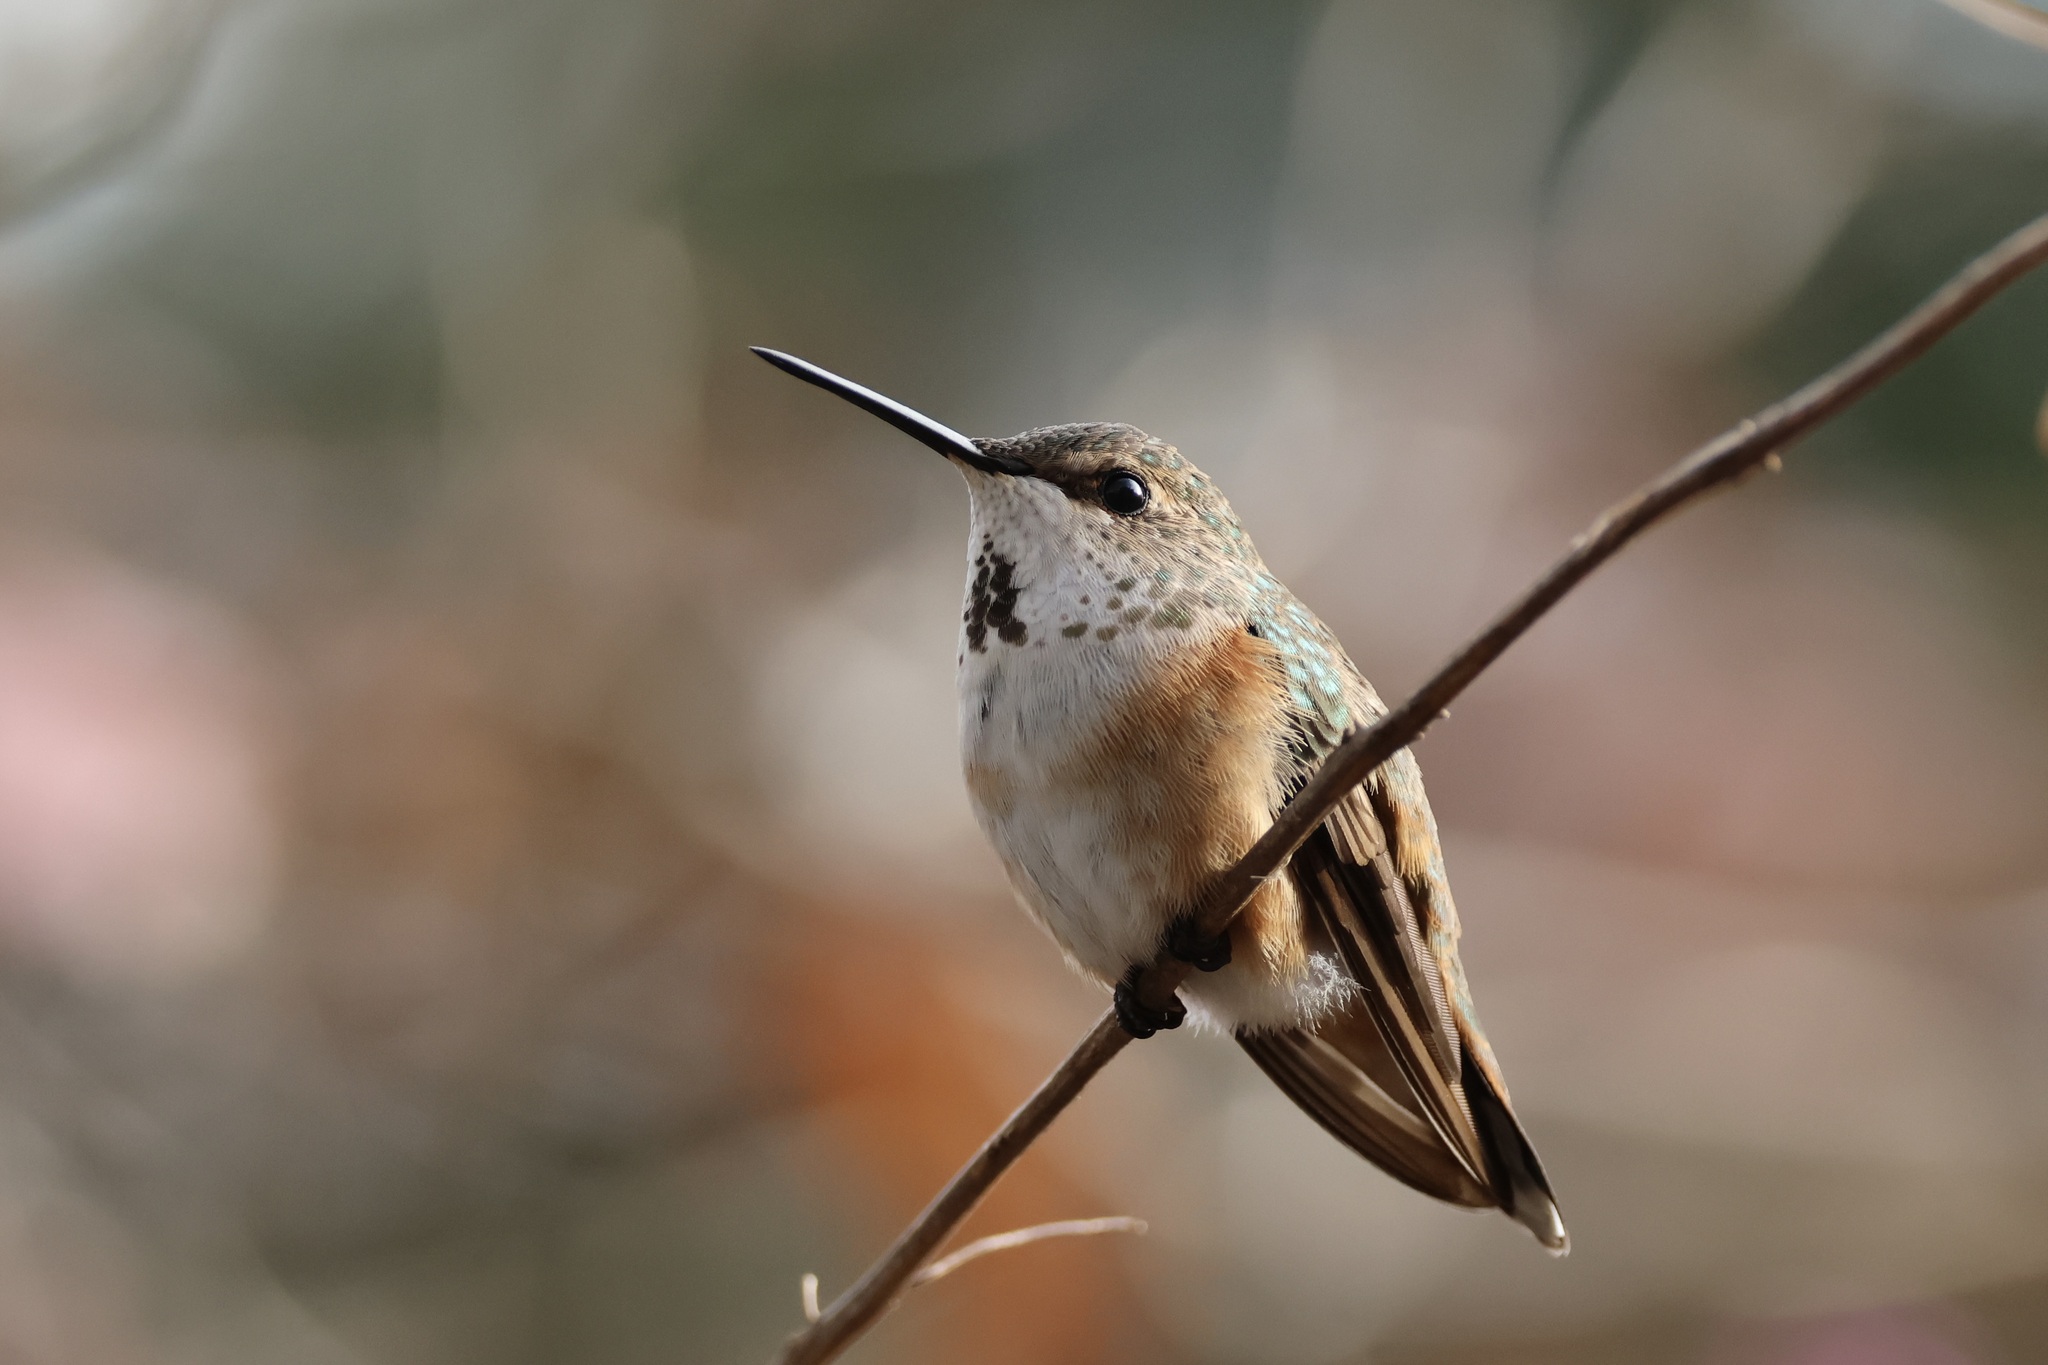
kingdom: Animalia
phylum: Chordata
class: Aves
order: Apodiformes
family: Trochilidae
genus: Selasphorus
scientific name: Selasphorus rufus
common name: Rufous hummingbird
